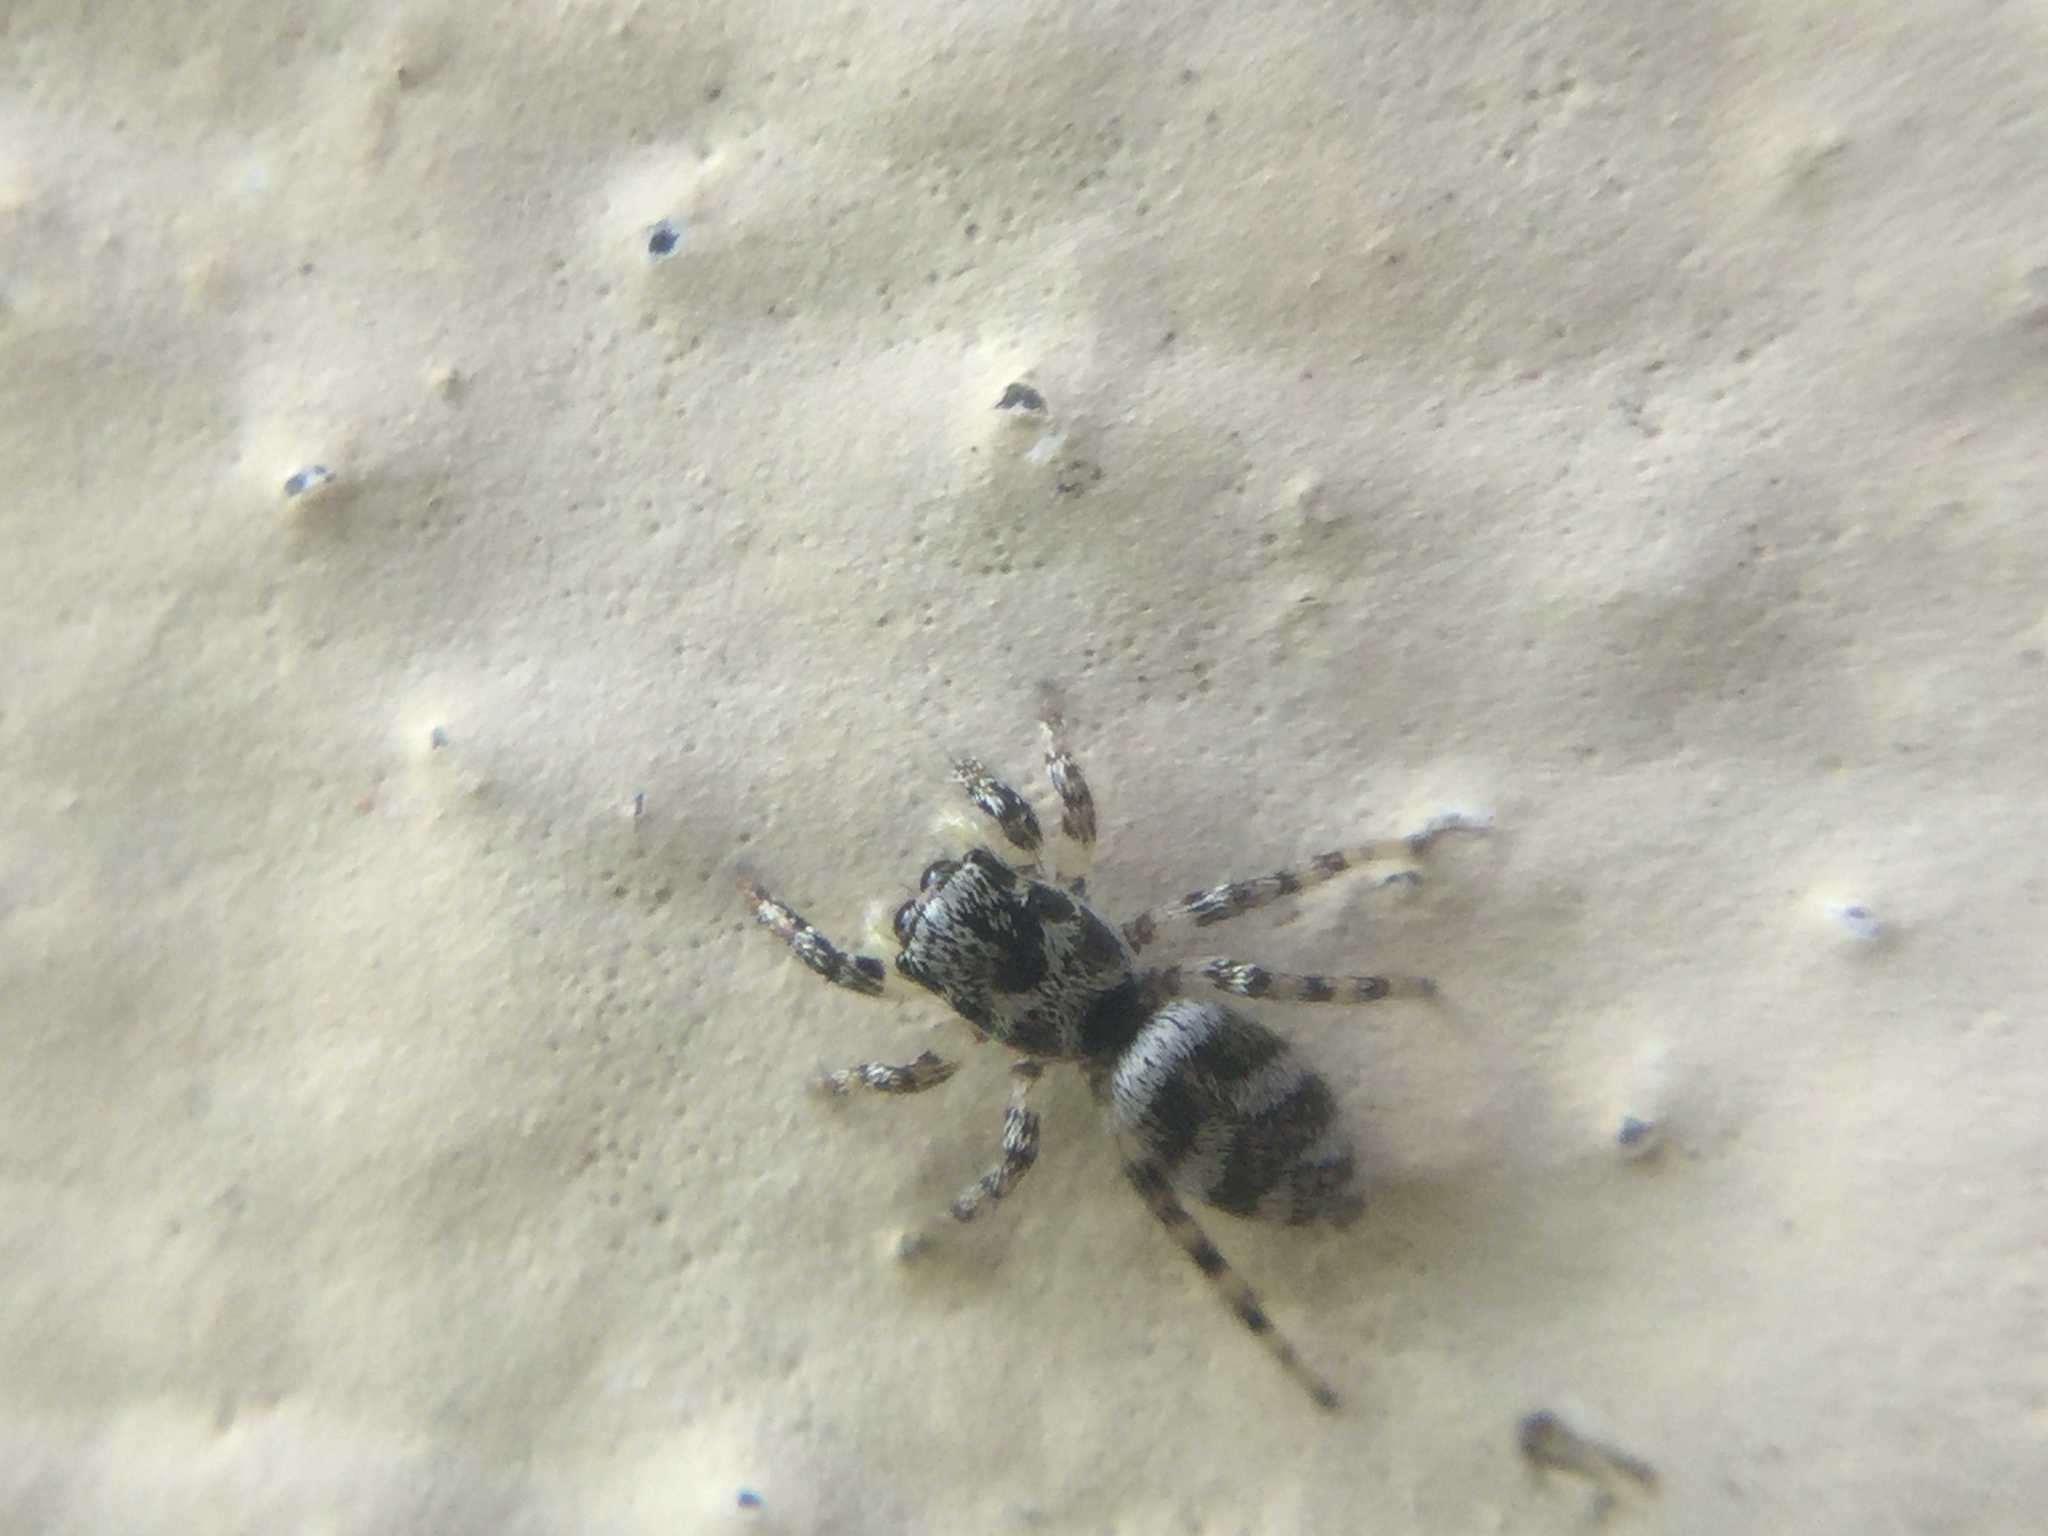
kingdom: Animalia
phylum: Arthropoda
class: Arachnida
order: Araneae
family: Salticidae
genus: Salticus
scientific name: Salticus scenicus
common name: Zebra jumper
